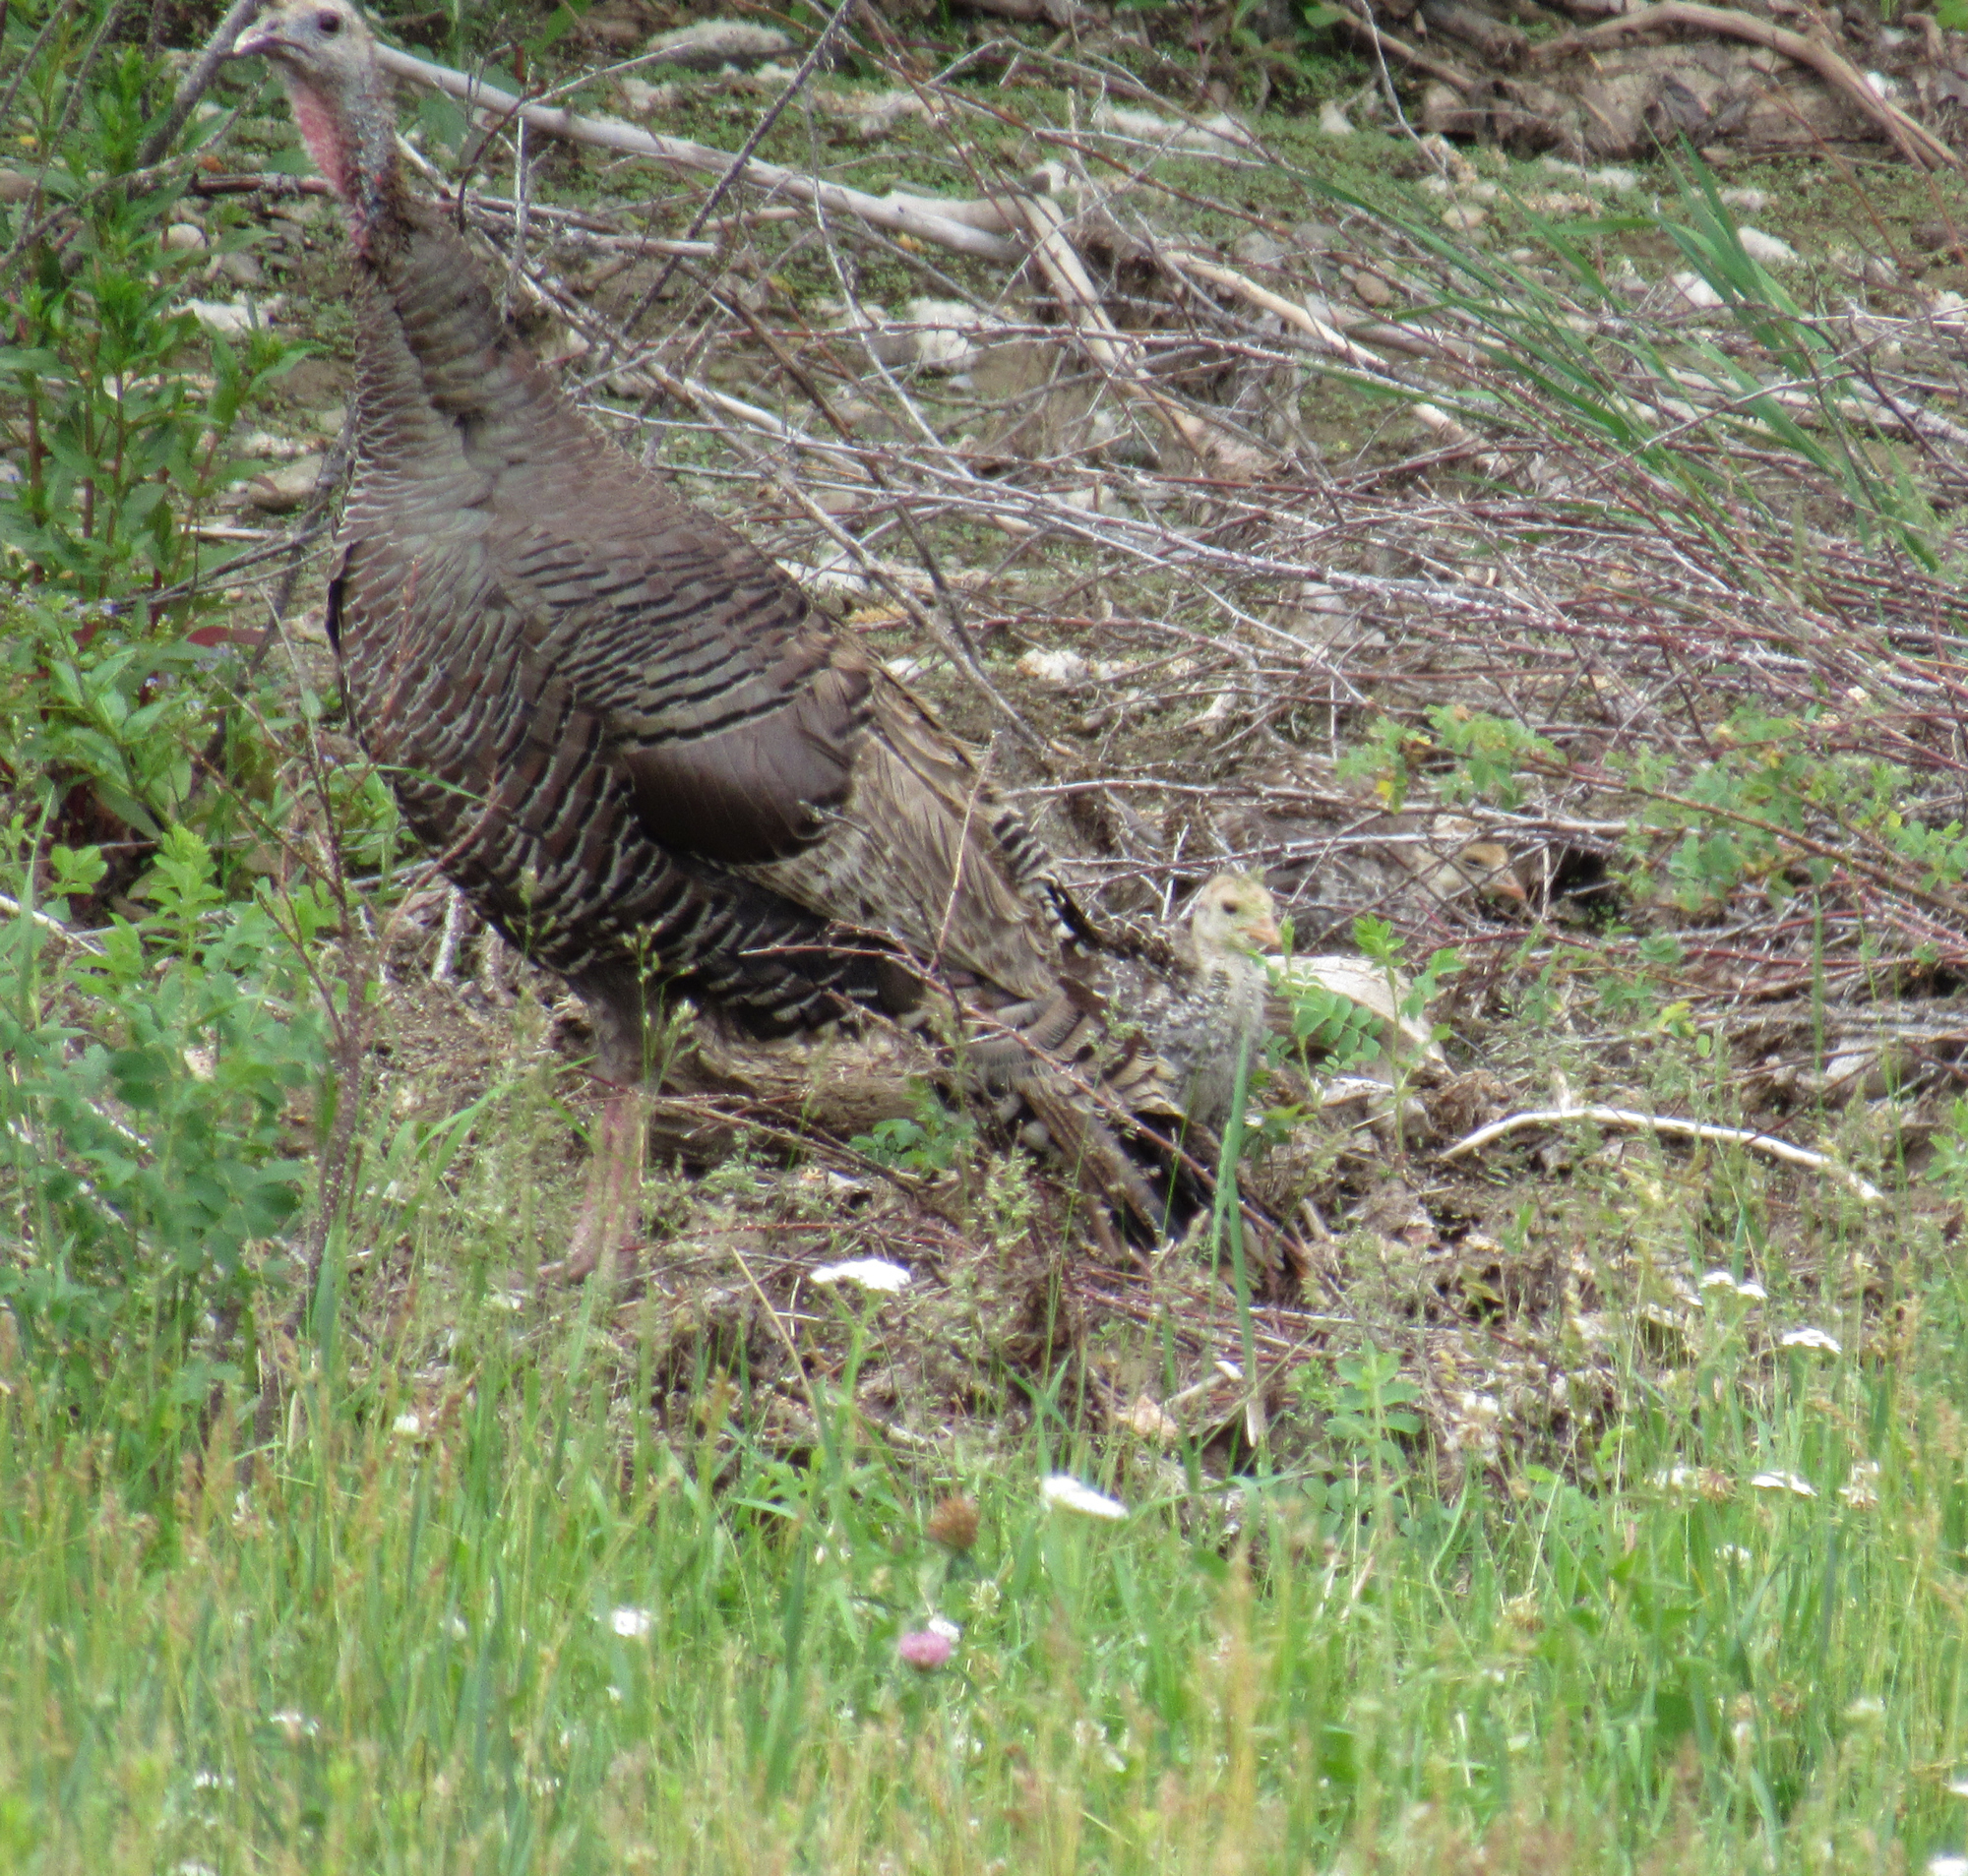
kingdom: Animalia
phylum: Chordata
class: Aves
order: Galliformes
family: Phasianidae
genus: Meleagris
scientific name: Meleagris gallopavo
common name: Wild turkey
